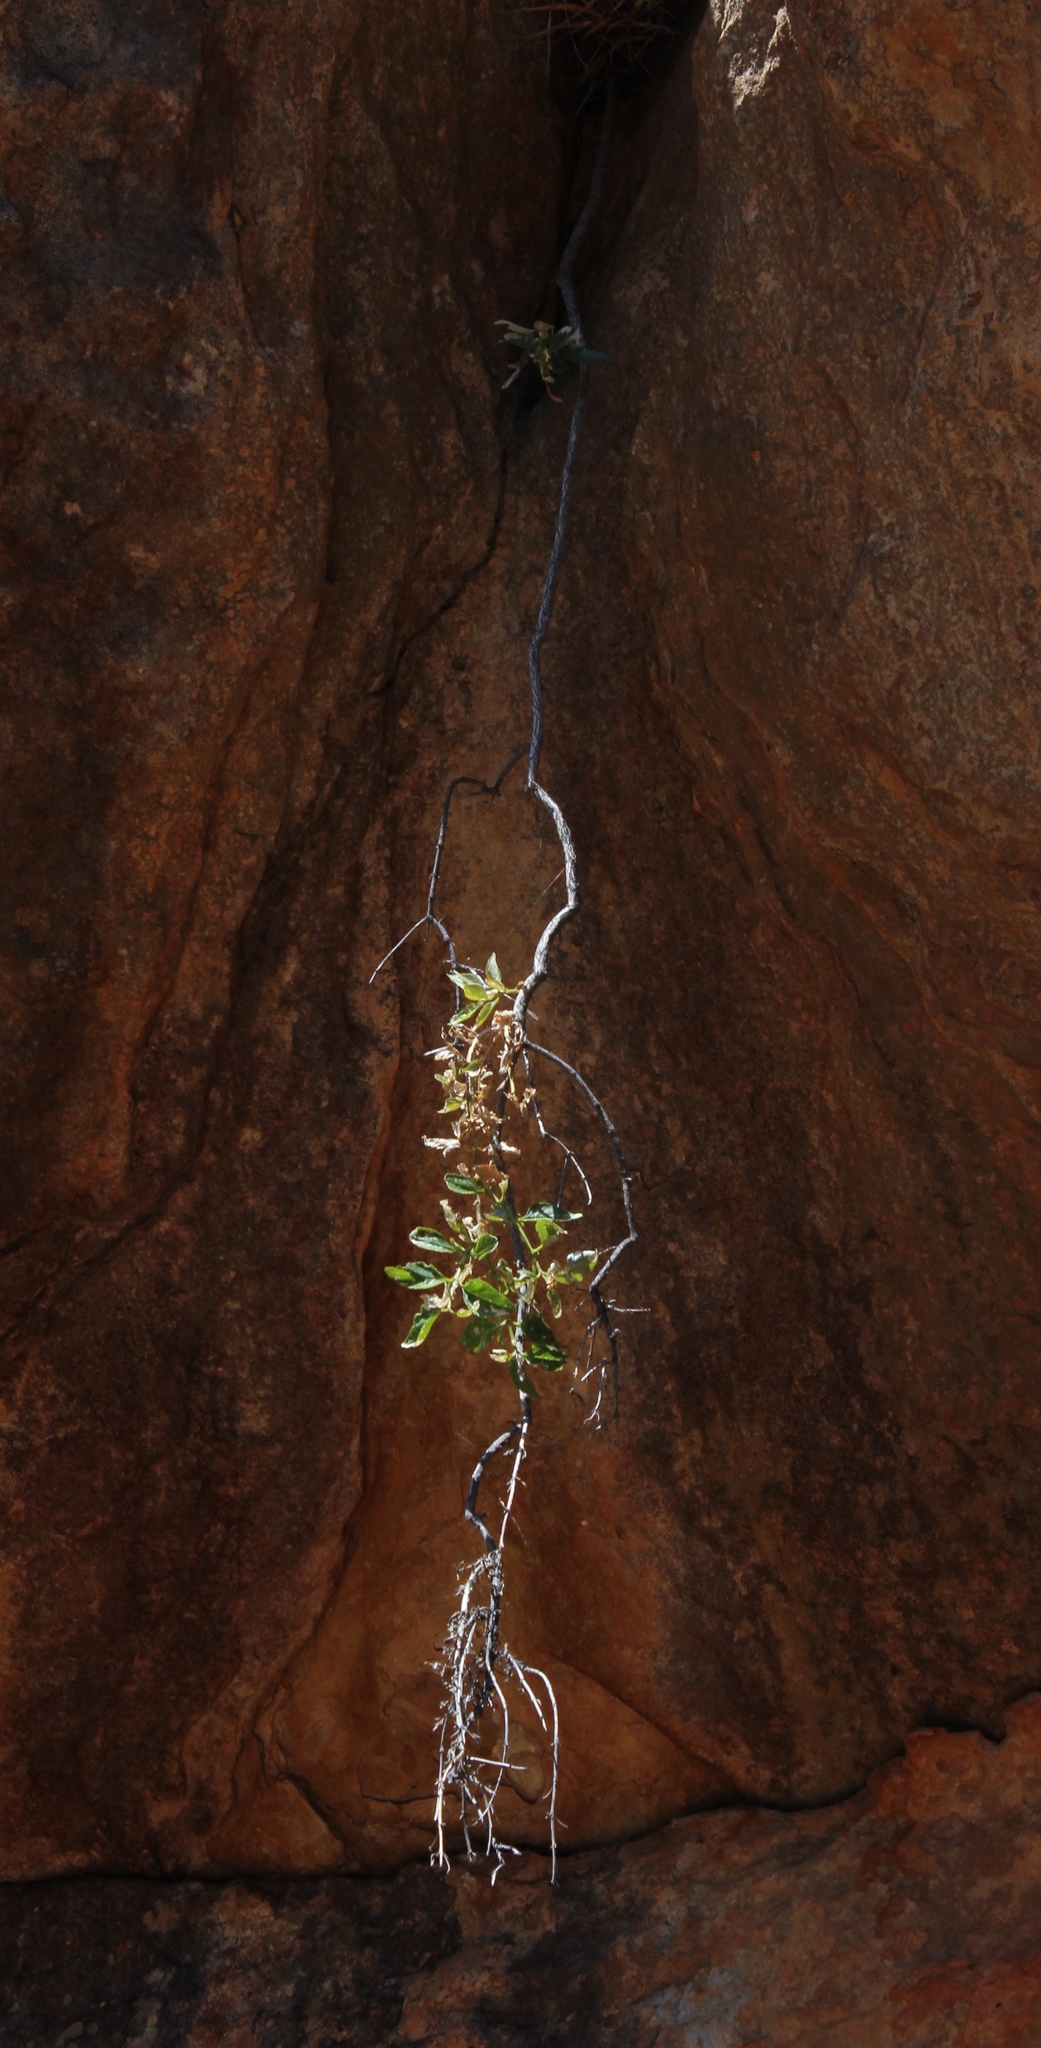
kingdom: Plantae
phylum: Tracheophyta
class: Magnoliopsida
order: Lamiales
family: Scrophulariaceae
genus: Teedia
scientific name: Teedia lucida
